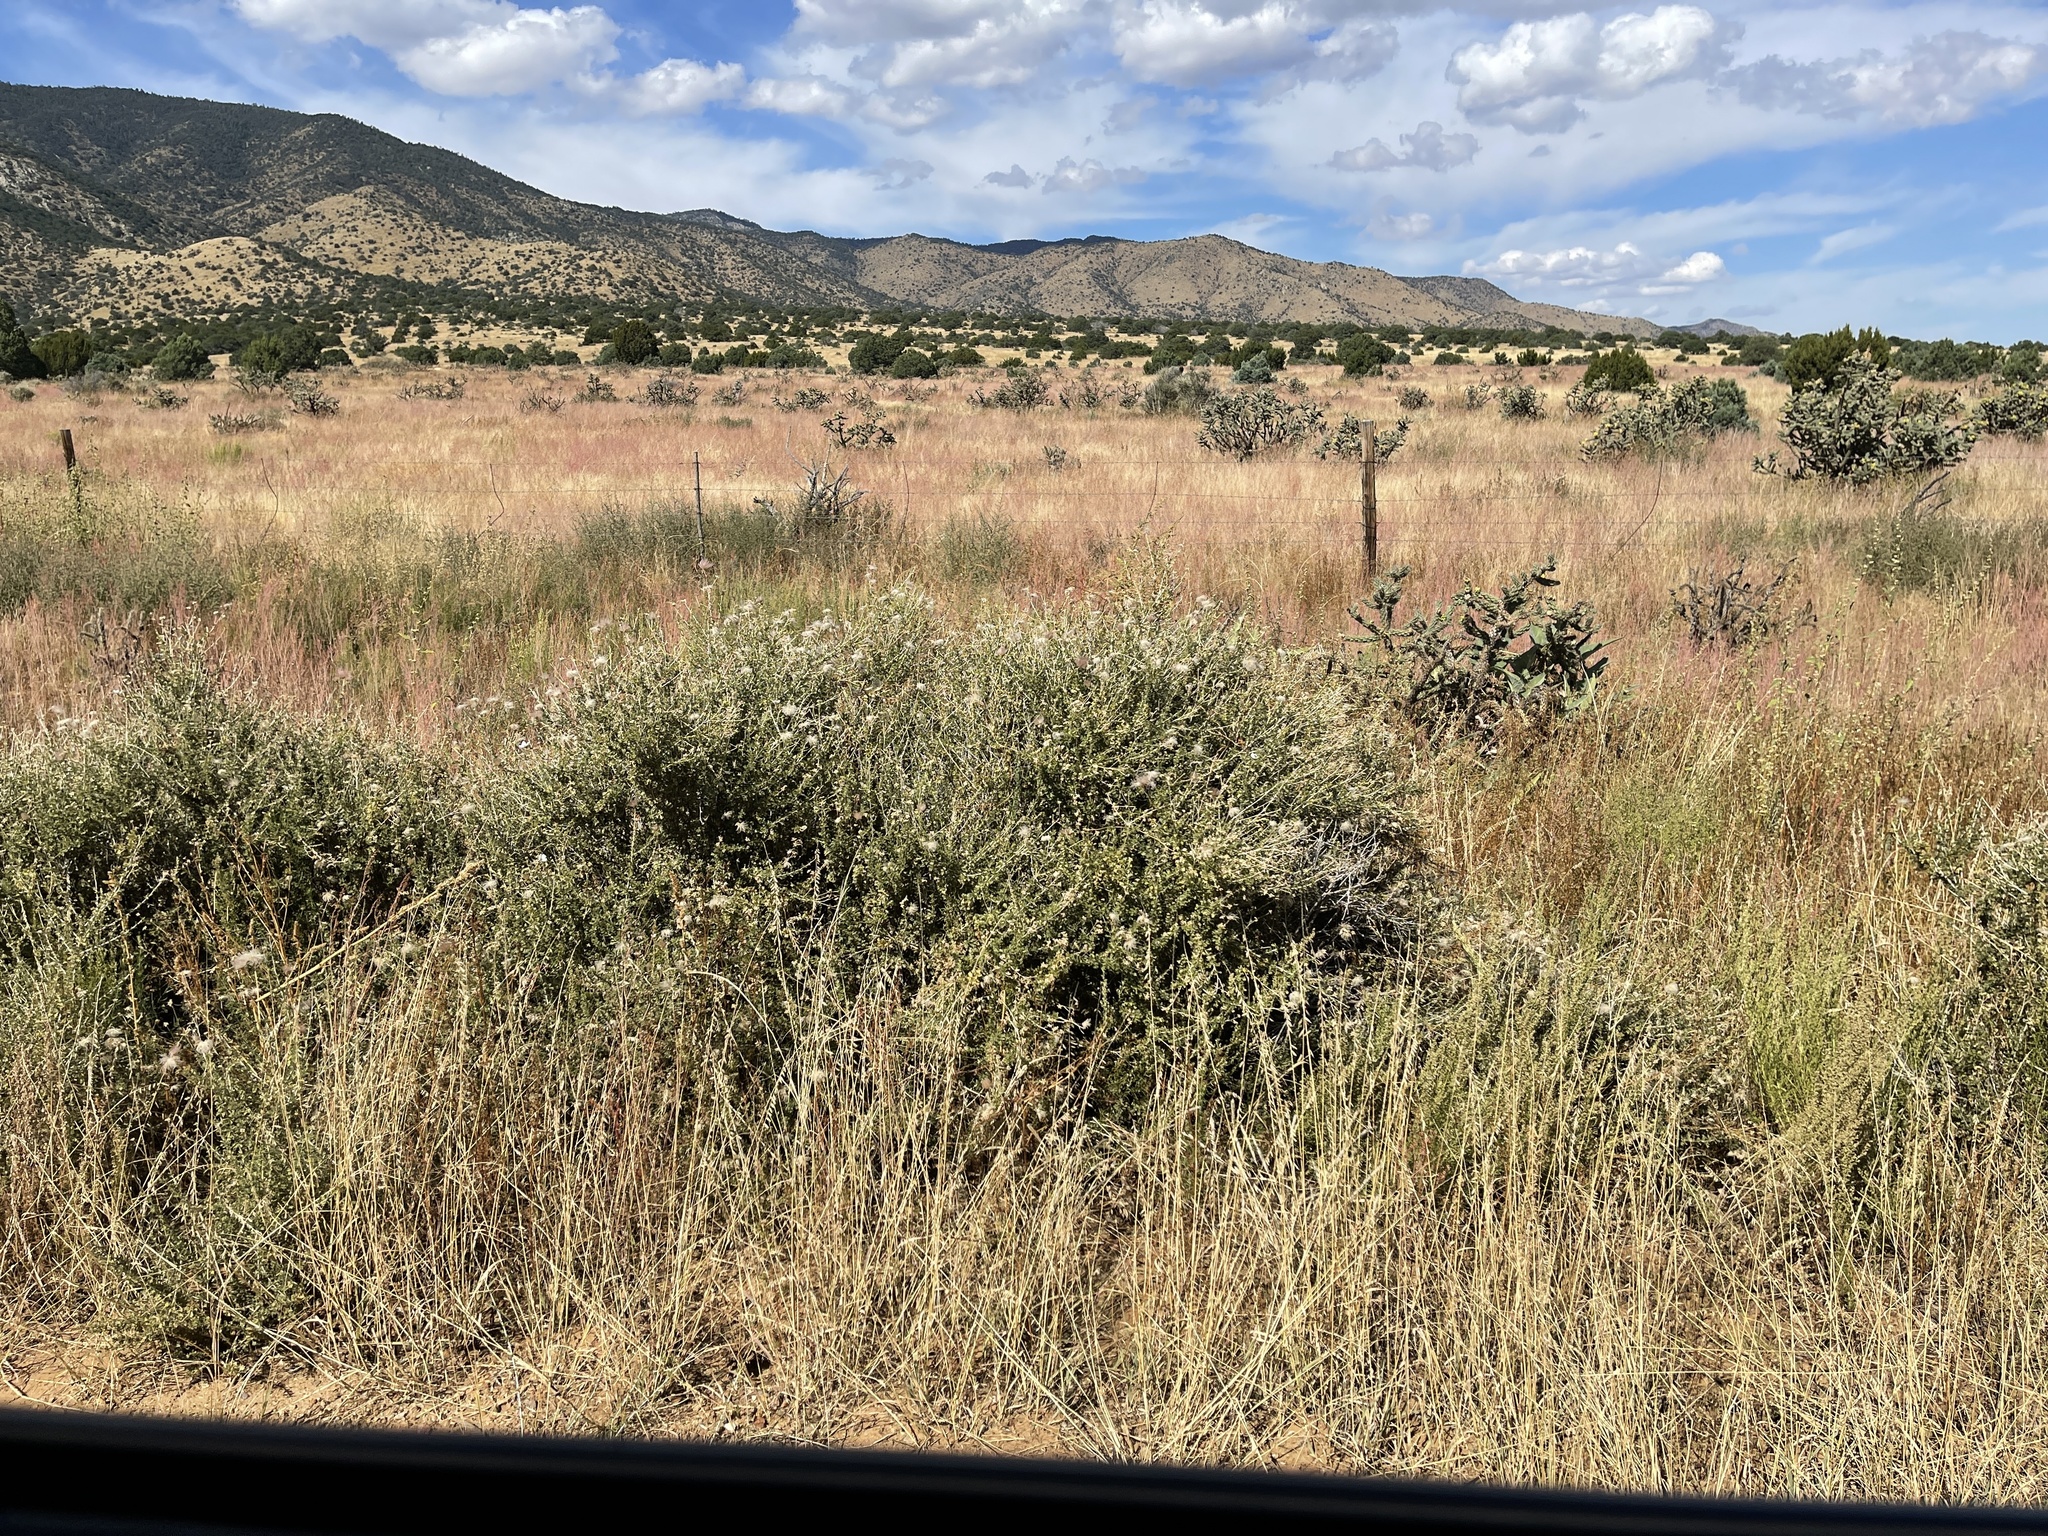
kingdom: Plantae
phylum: Tracheophyta
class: Magnoliopsida
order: Rosales
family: Rosaceae
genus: Fallugia
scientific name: Fallugia paradoxa
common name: Apache-plume
